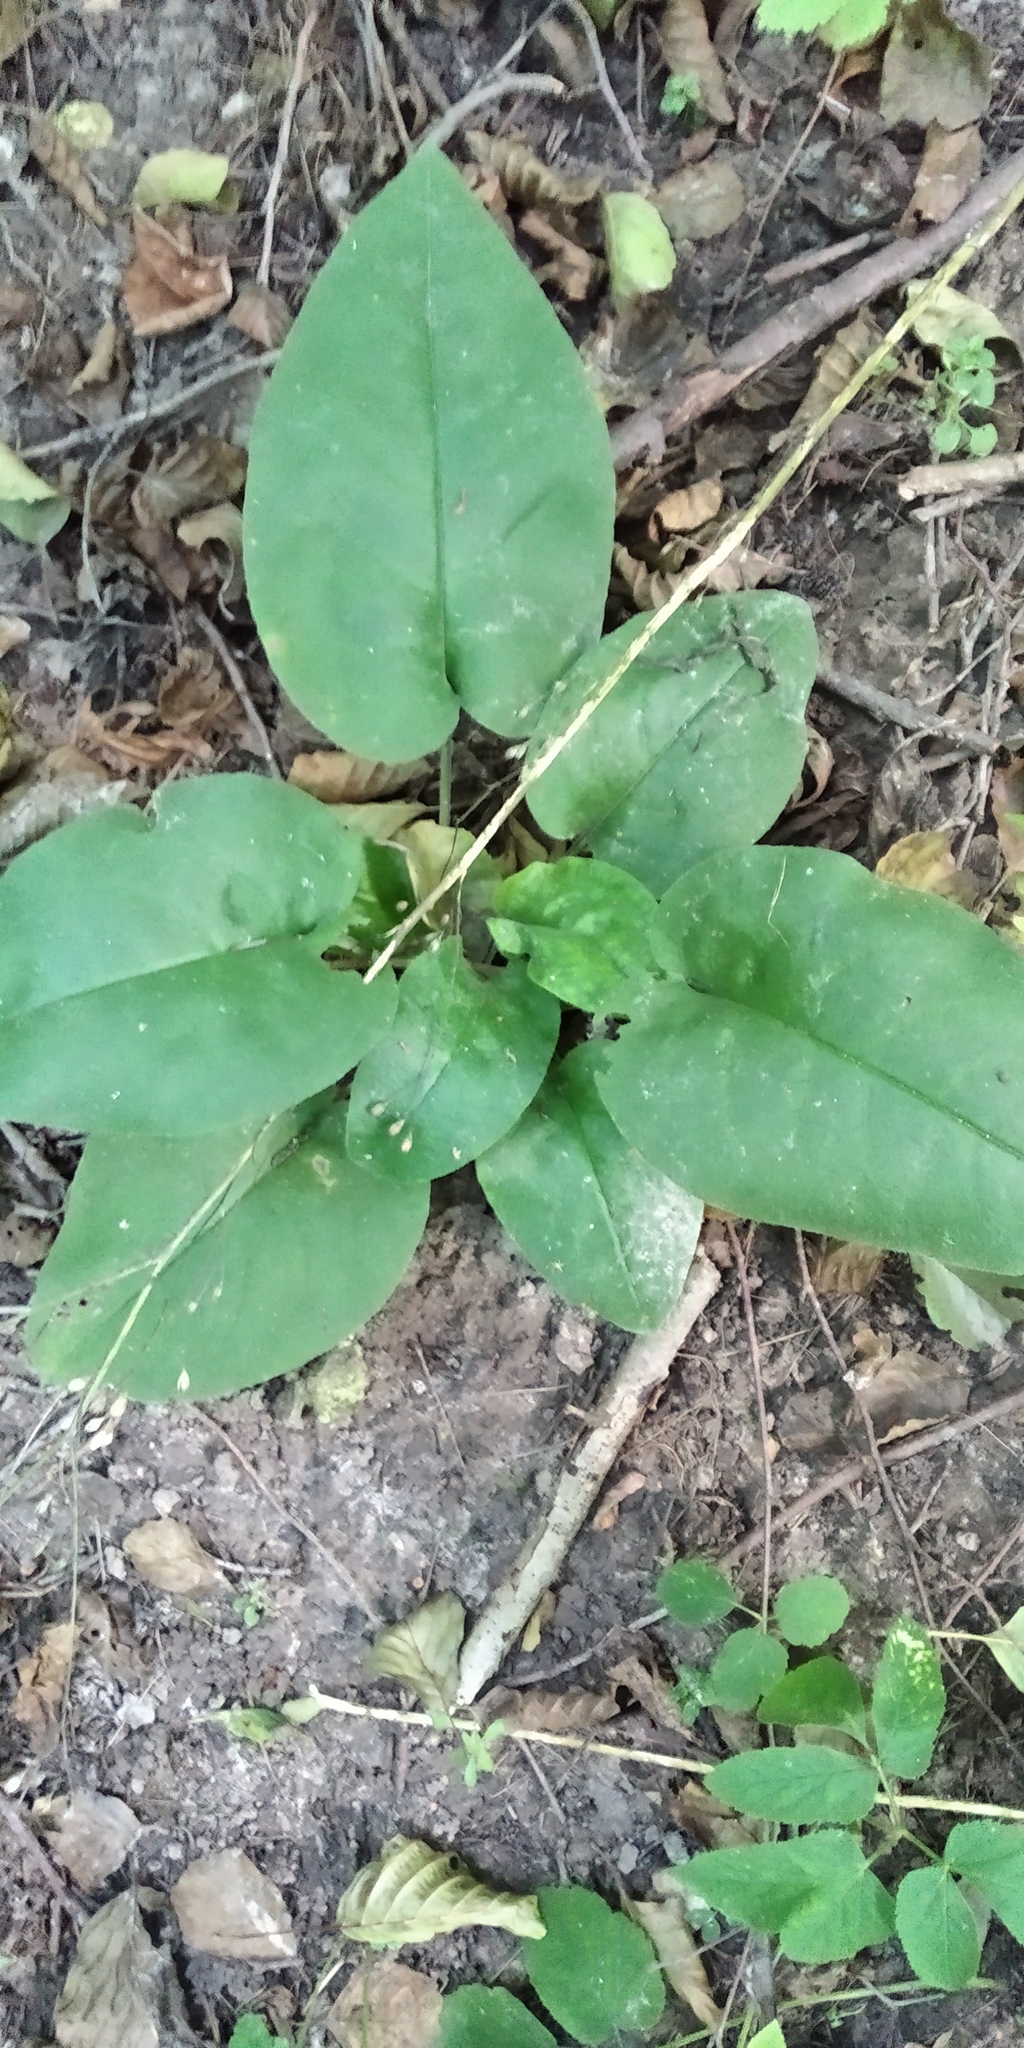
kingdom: Plantae
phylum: Tracheophyta
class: Magnoliopsida
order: Boraginales
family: Boraginaceae
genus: Pulmonaria
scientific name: Pulmonaria obscura
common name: Suffolk lungwort
